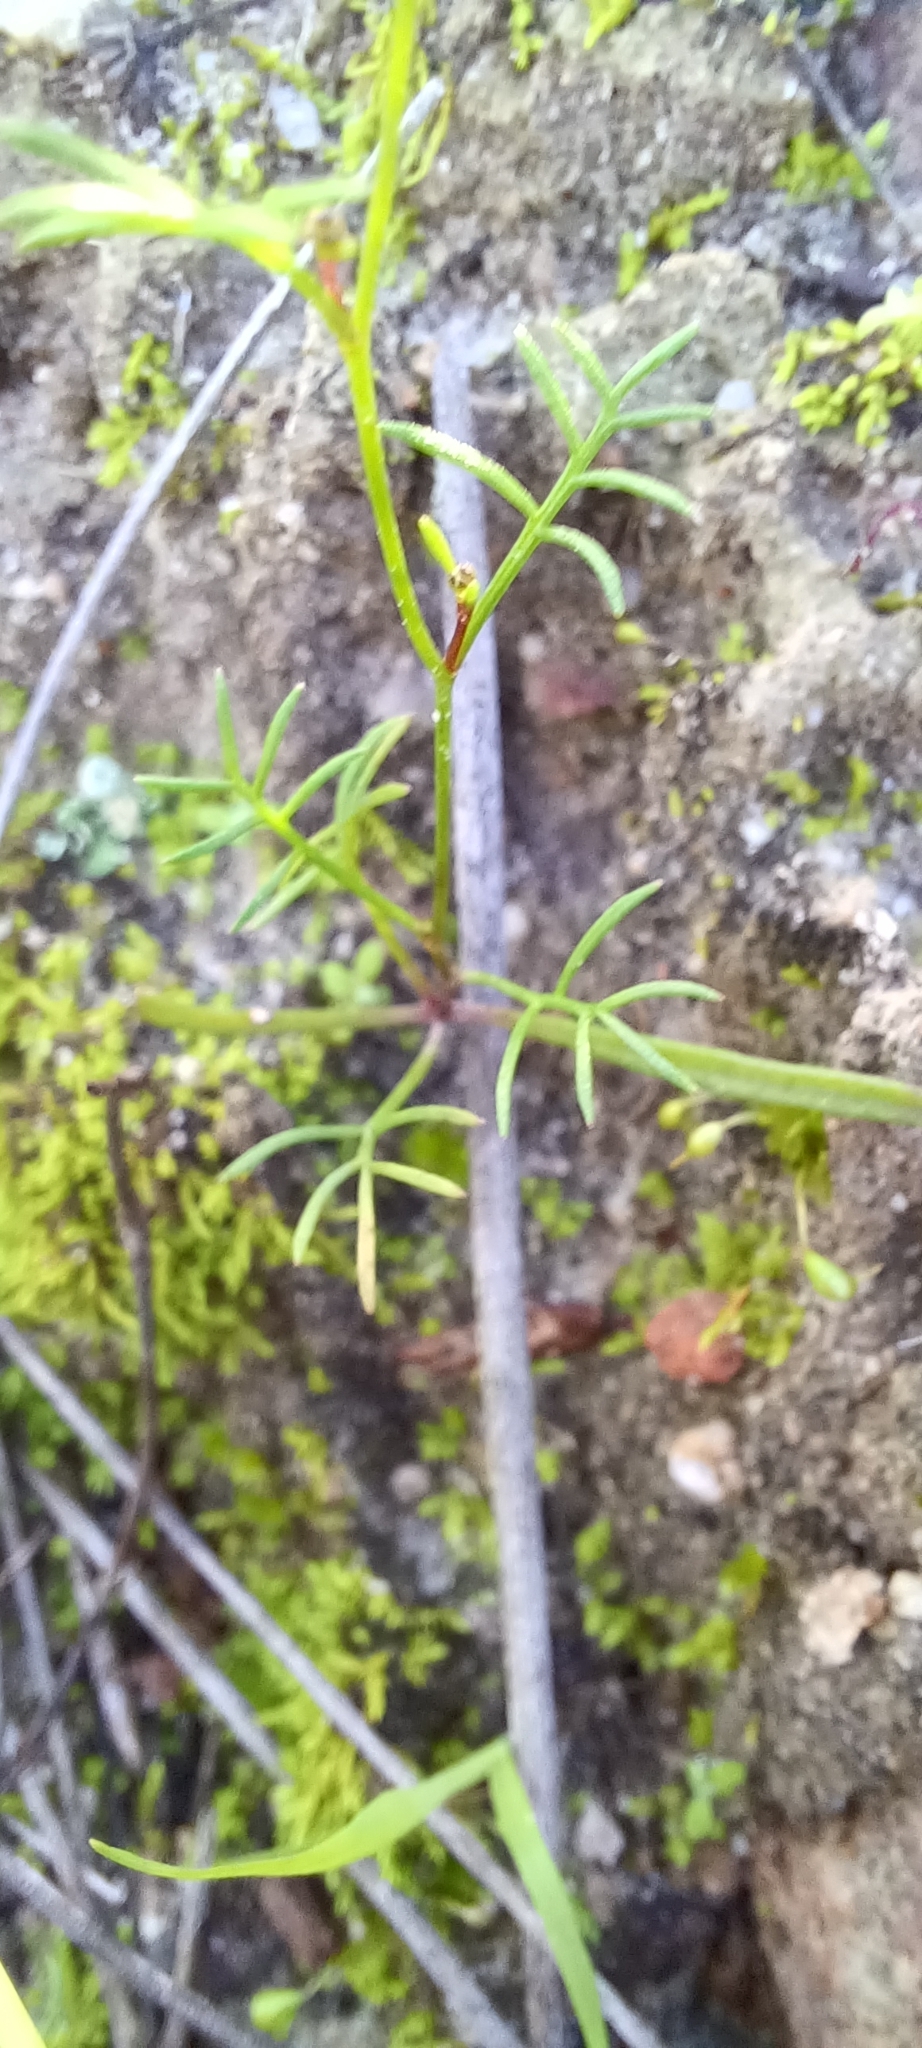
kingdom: Plantae
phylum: Tracheophyta
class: Magnoliopsida
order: Brassicales
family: Brassicaceae
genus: Heliophila
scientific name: Heliophila pectinata
